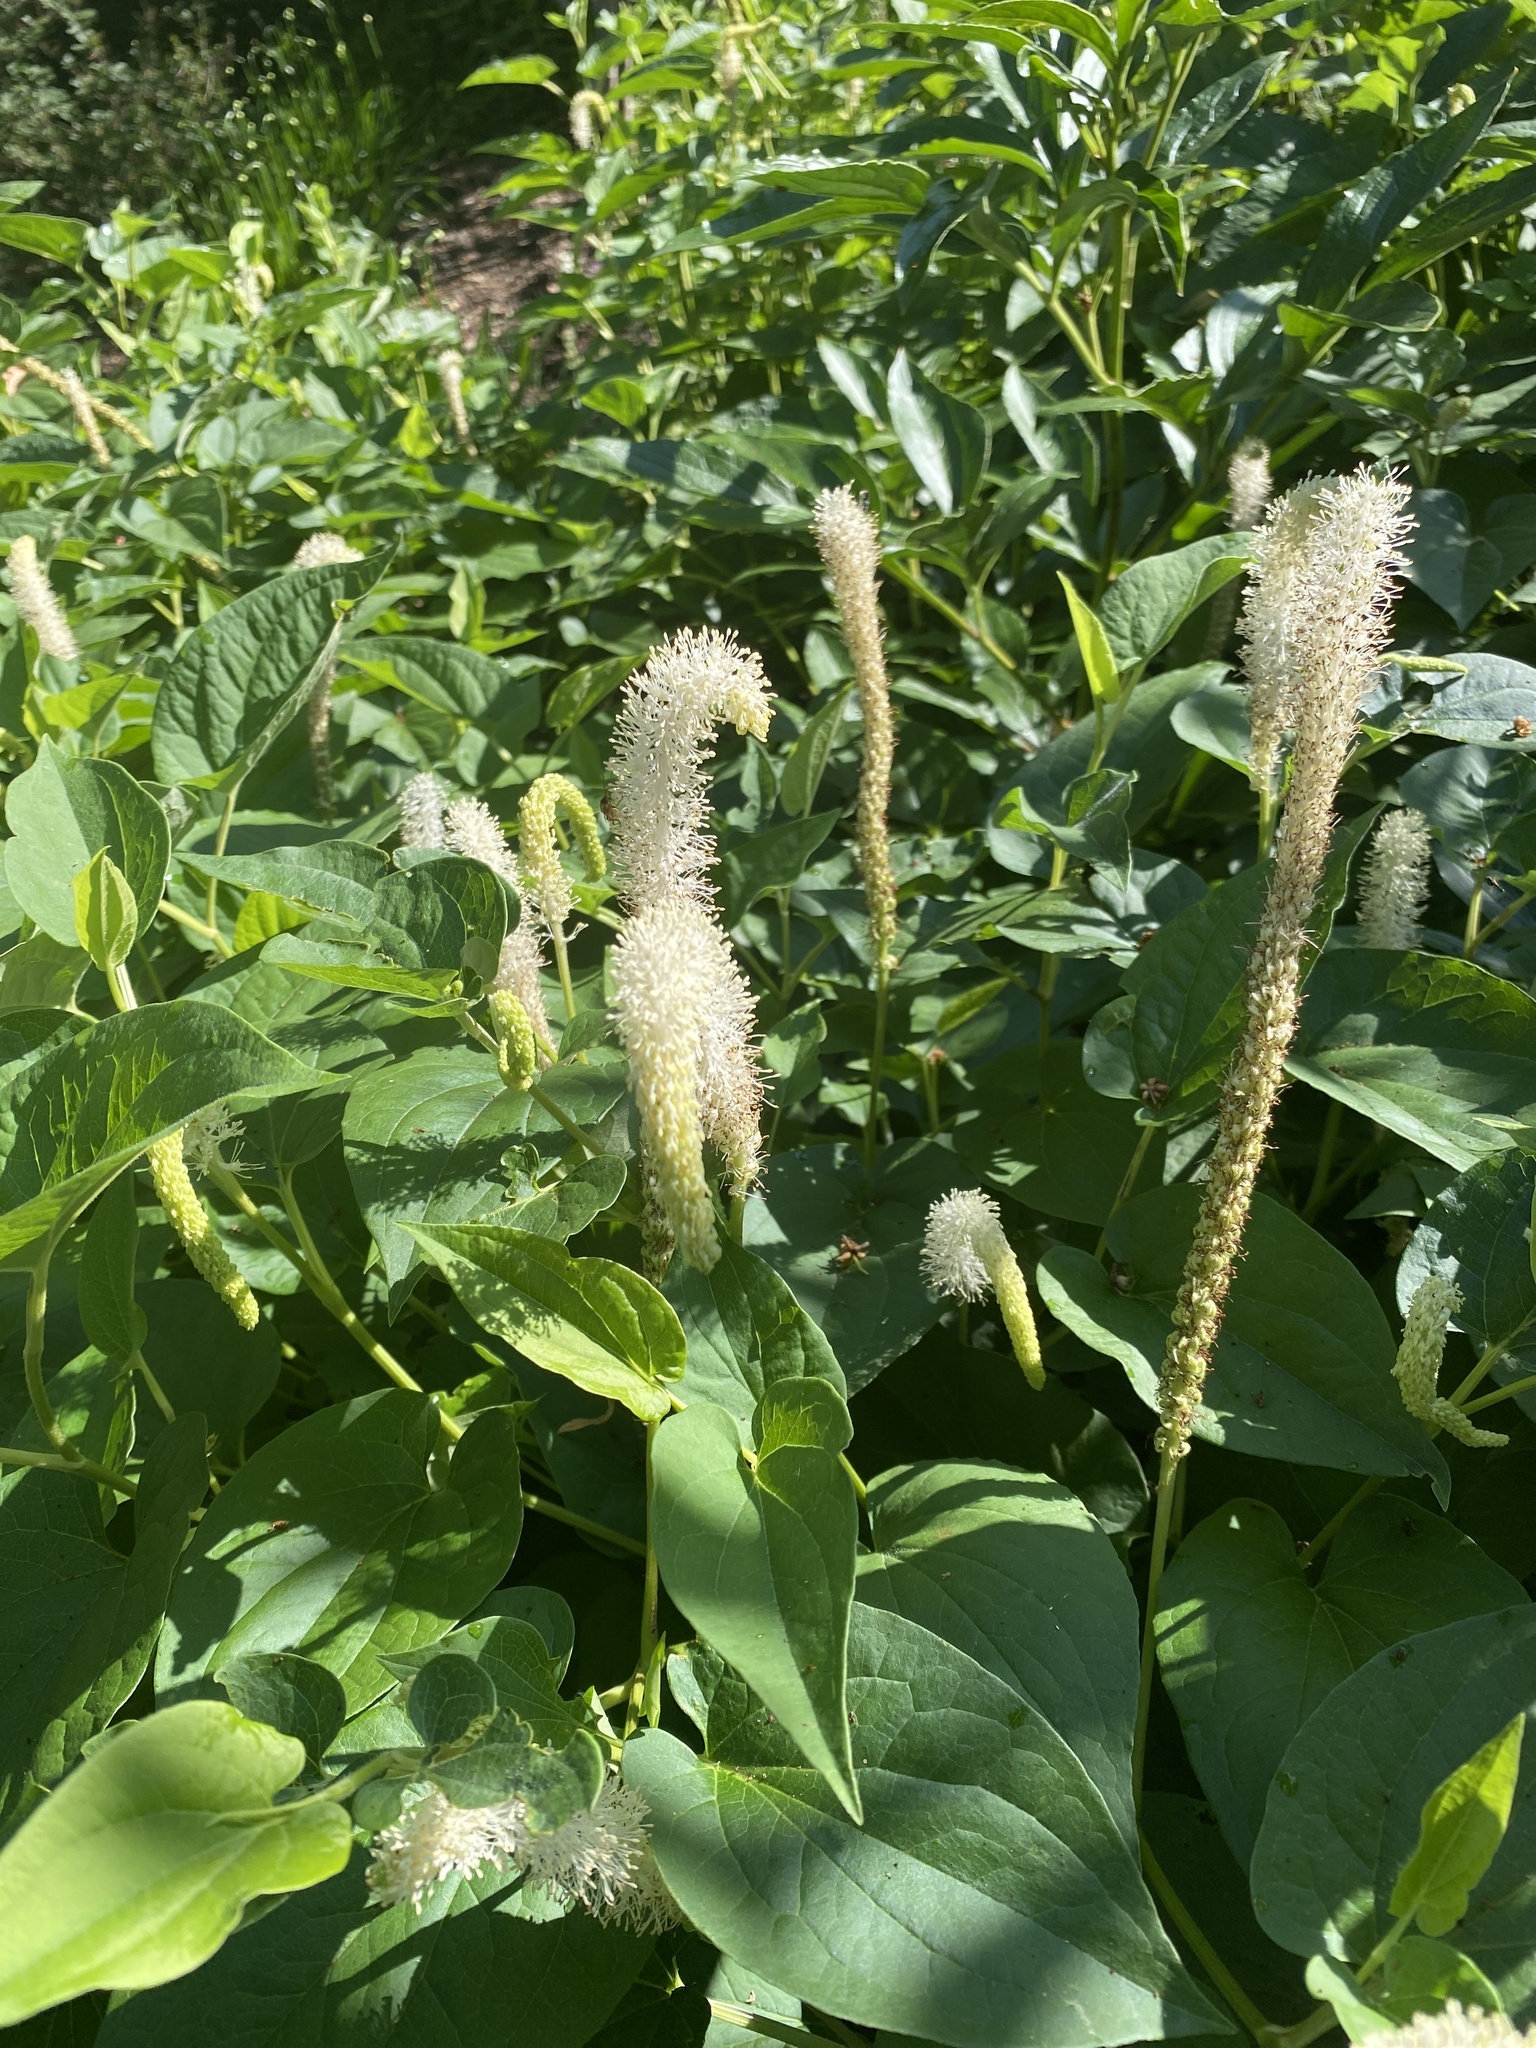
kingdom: Plantae
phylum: Tracheophyta
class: Magnoliopsida
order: Piperales
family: Saururaceae
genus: Saururus
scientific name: Saururus cernuus
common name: Lizard's-tail
